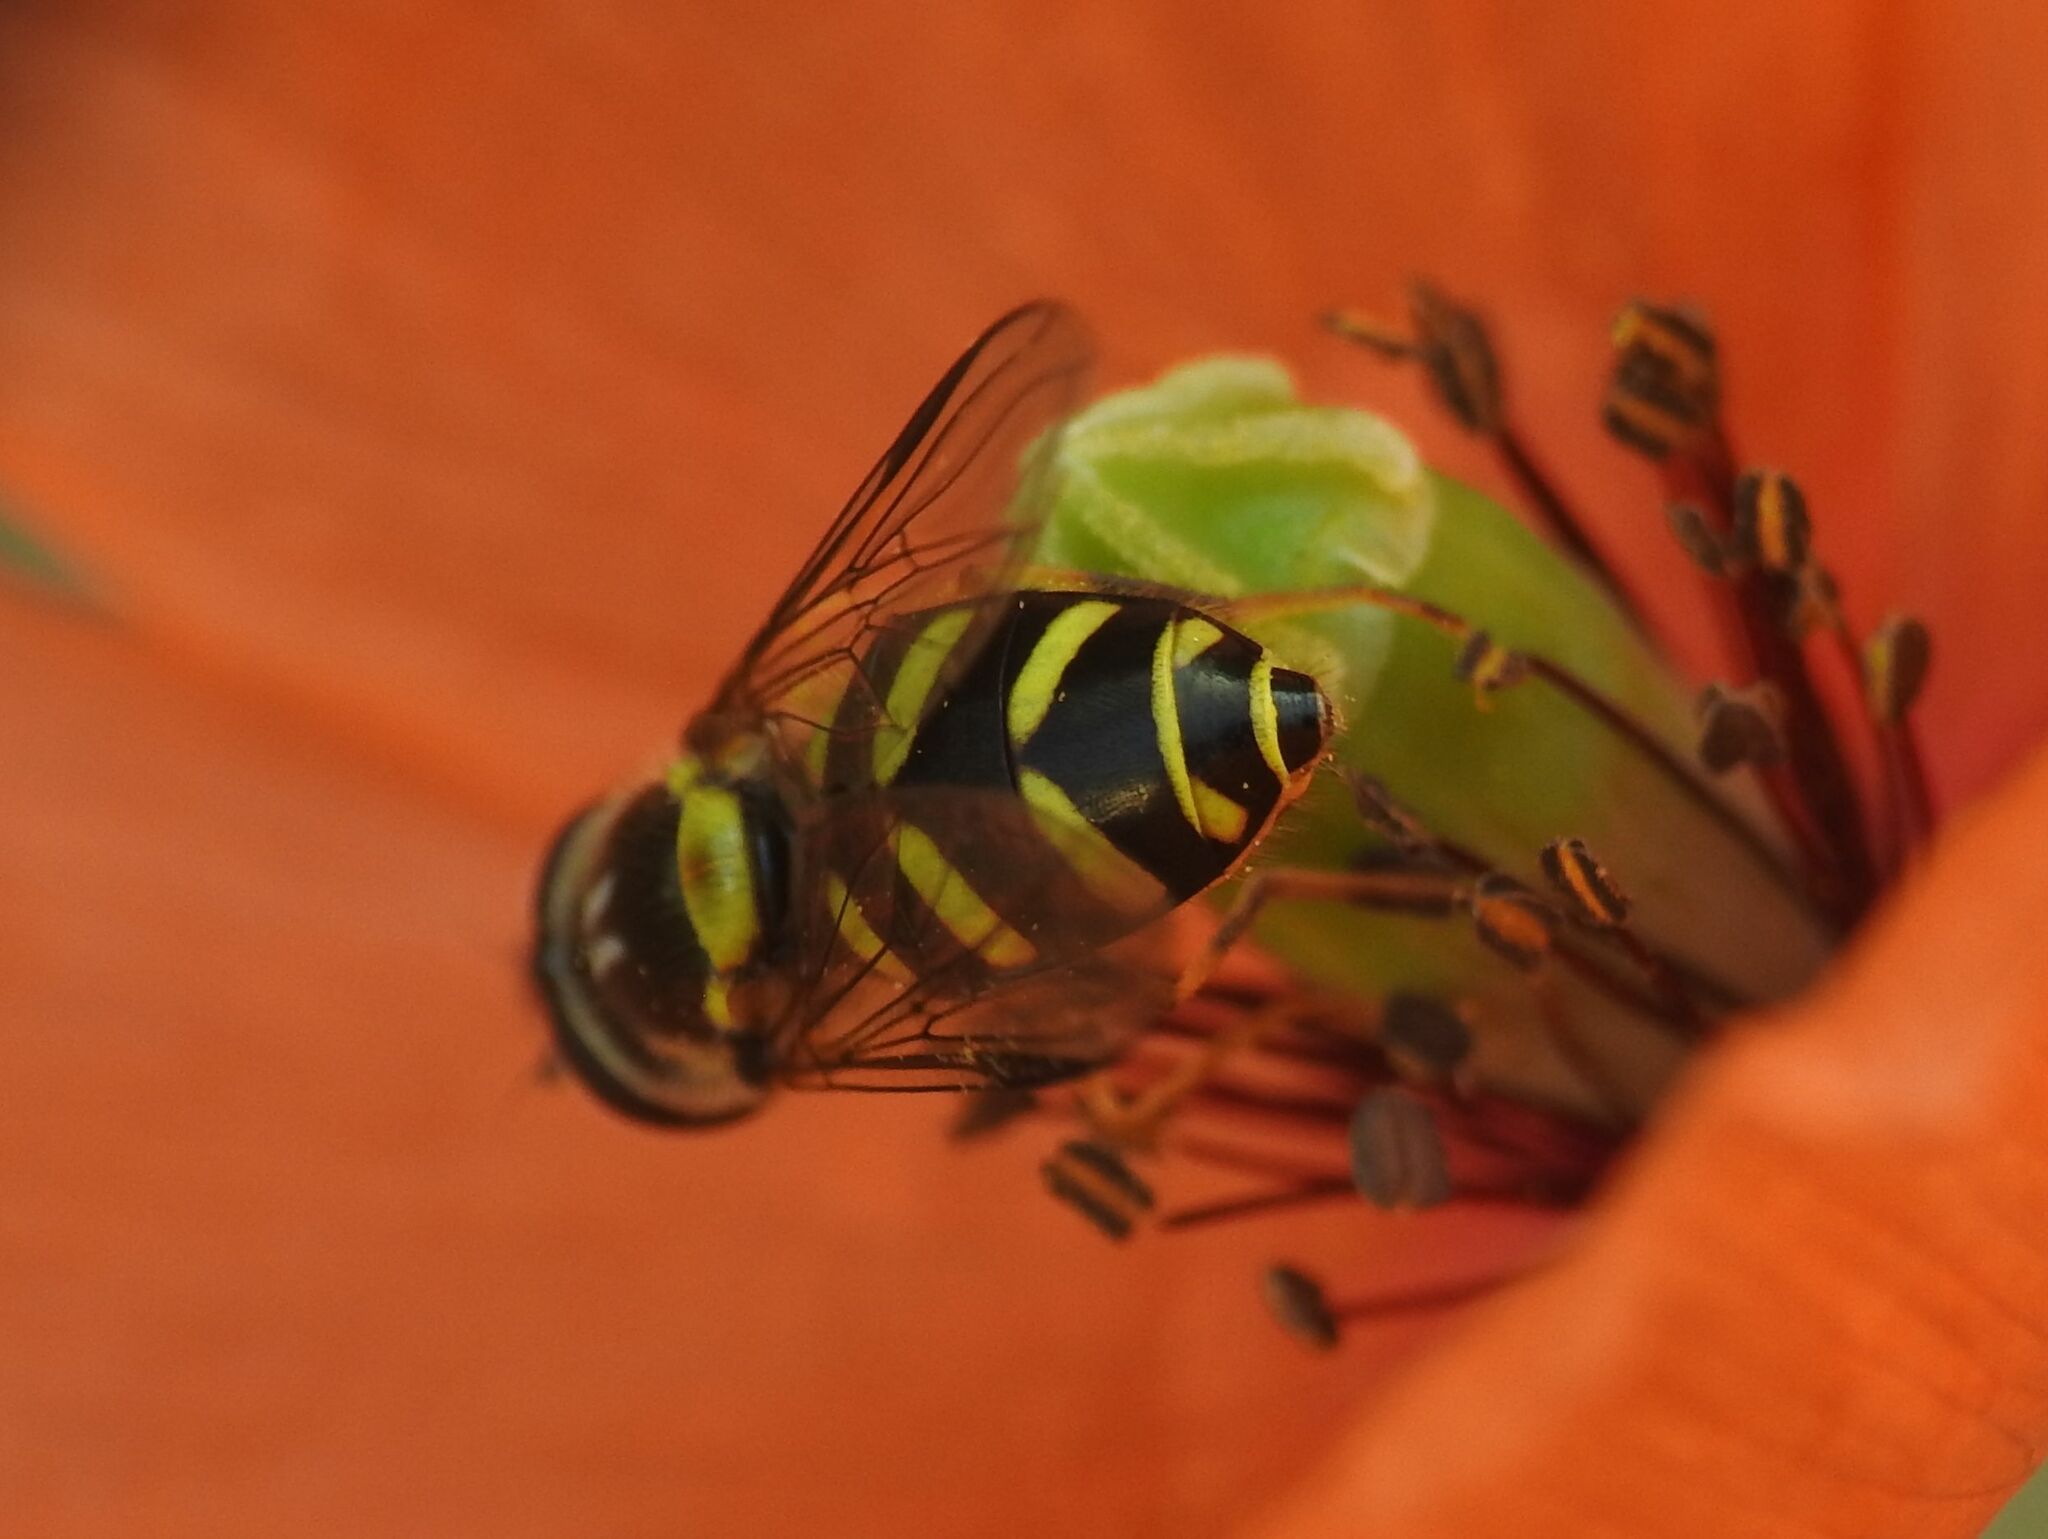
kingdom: Animalia
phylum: Arthropoda
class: Insecta
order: Diptera
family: Syrphidae
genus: Dasysyrphus
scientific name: Dasysyrphus albostriatus
